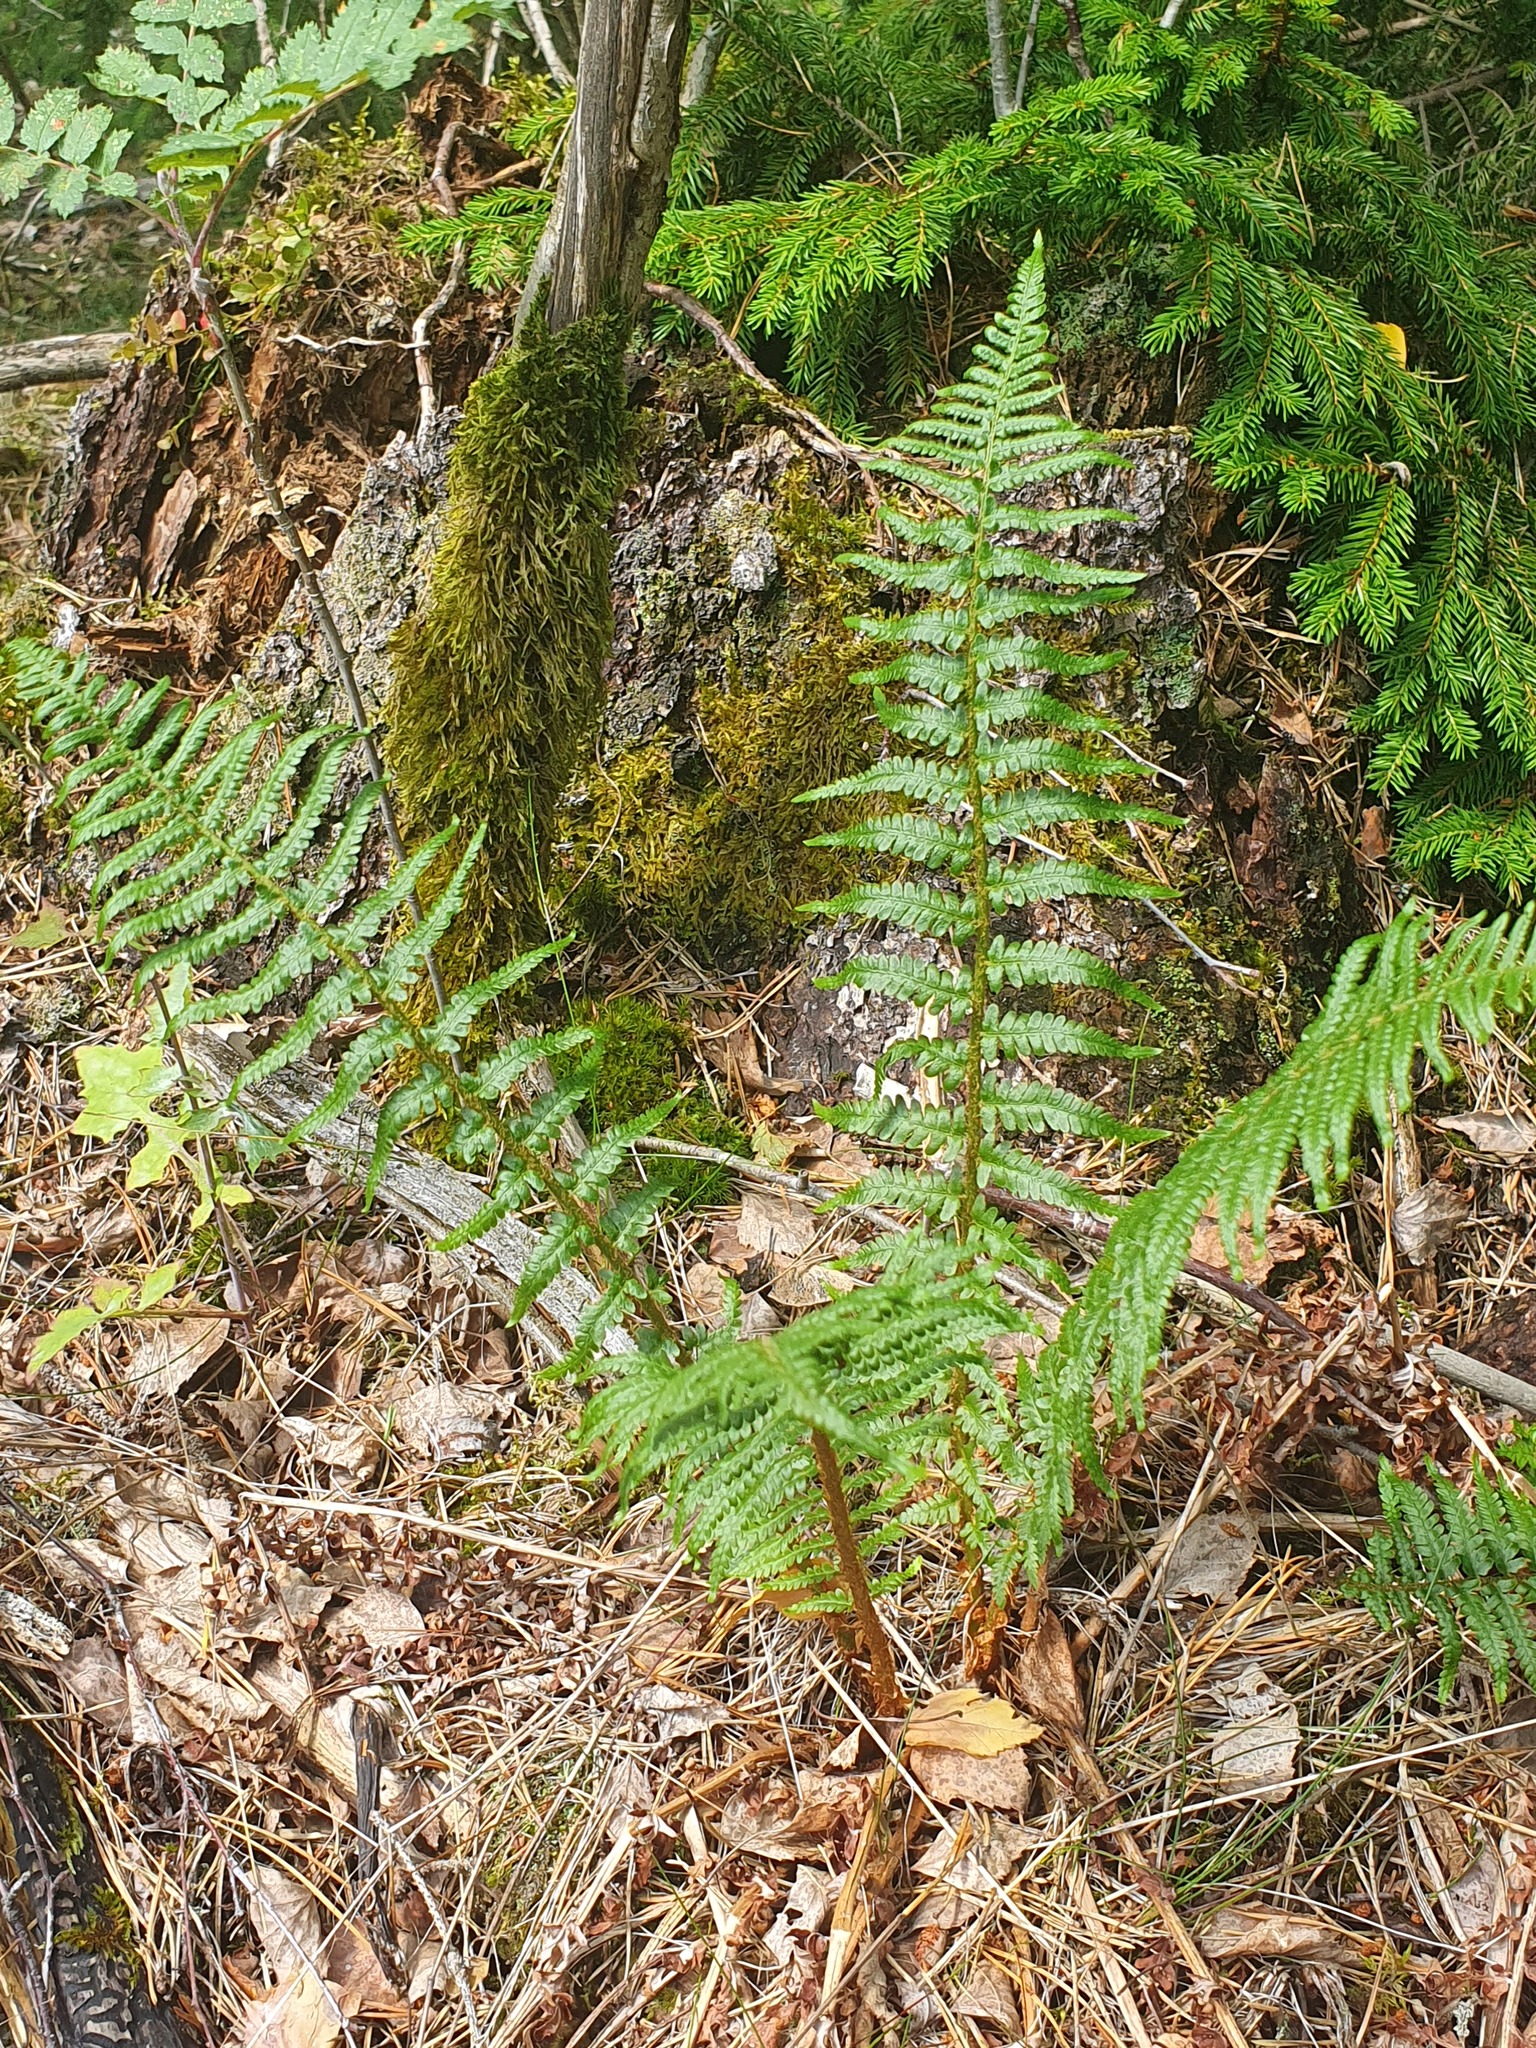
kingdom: Plantae
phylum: Tracheophyta
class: Polypodiopsida
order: Polypodiales
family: Dryopteridaceae
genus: Dryopteris
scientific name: Dryopteris filix-mas
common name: Male fern
